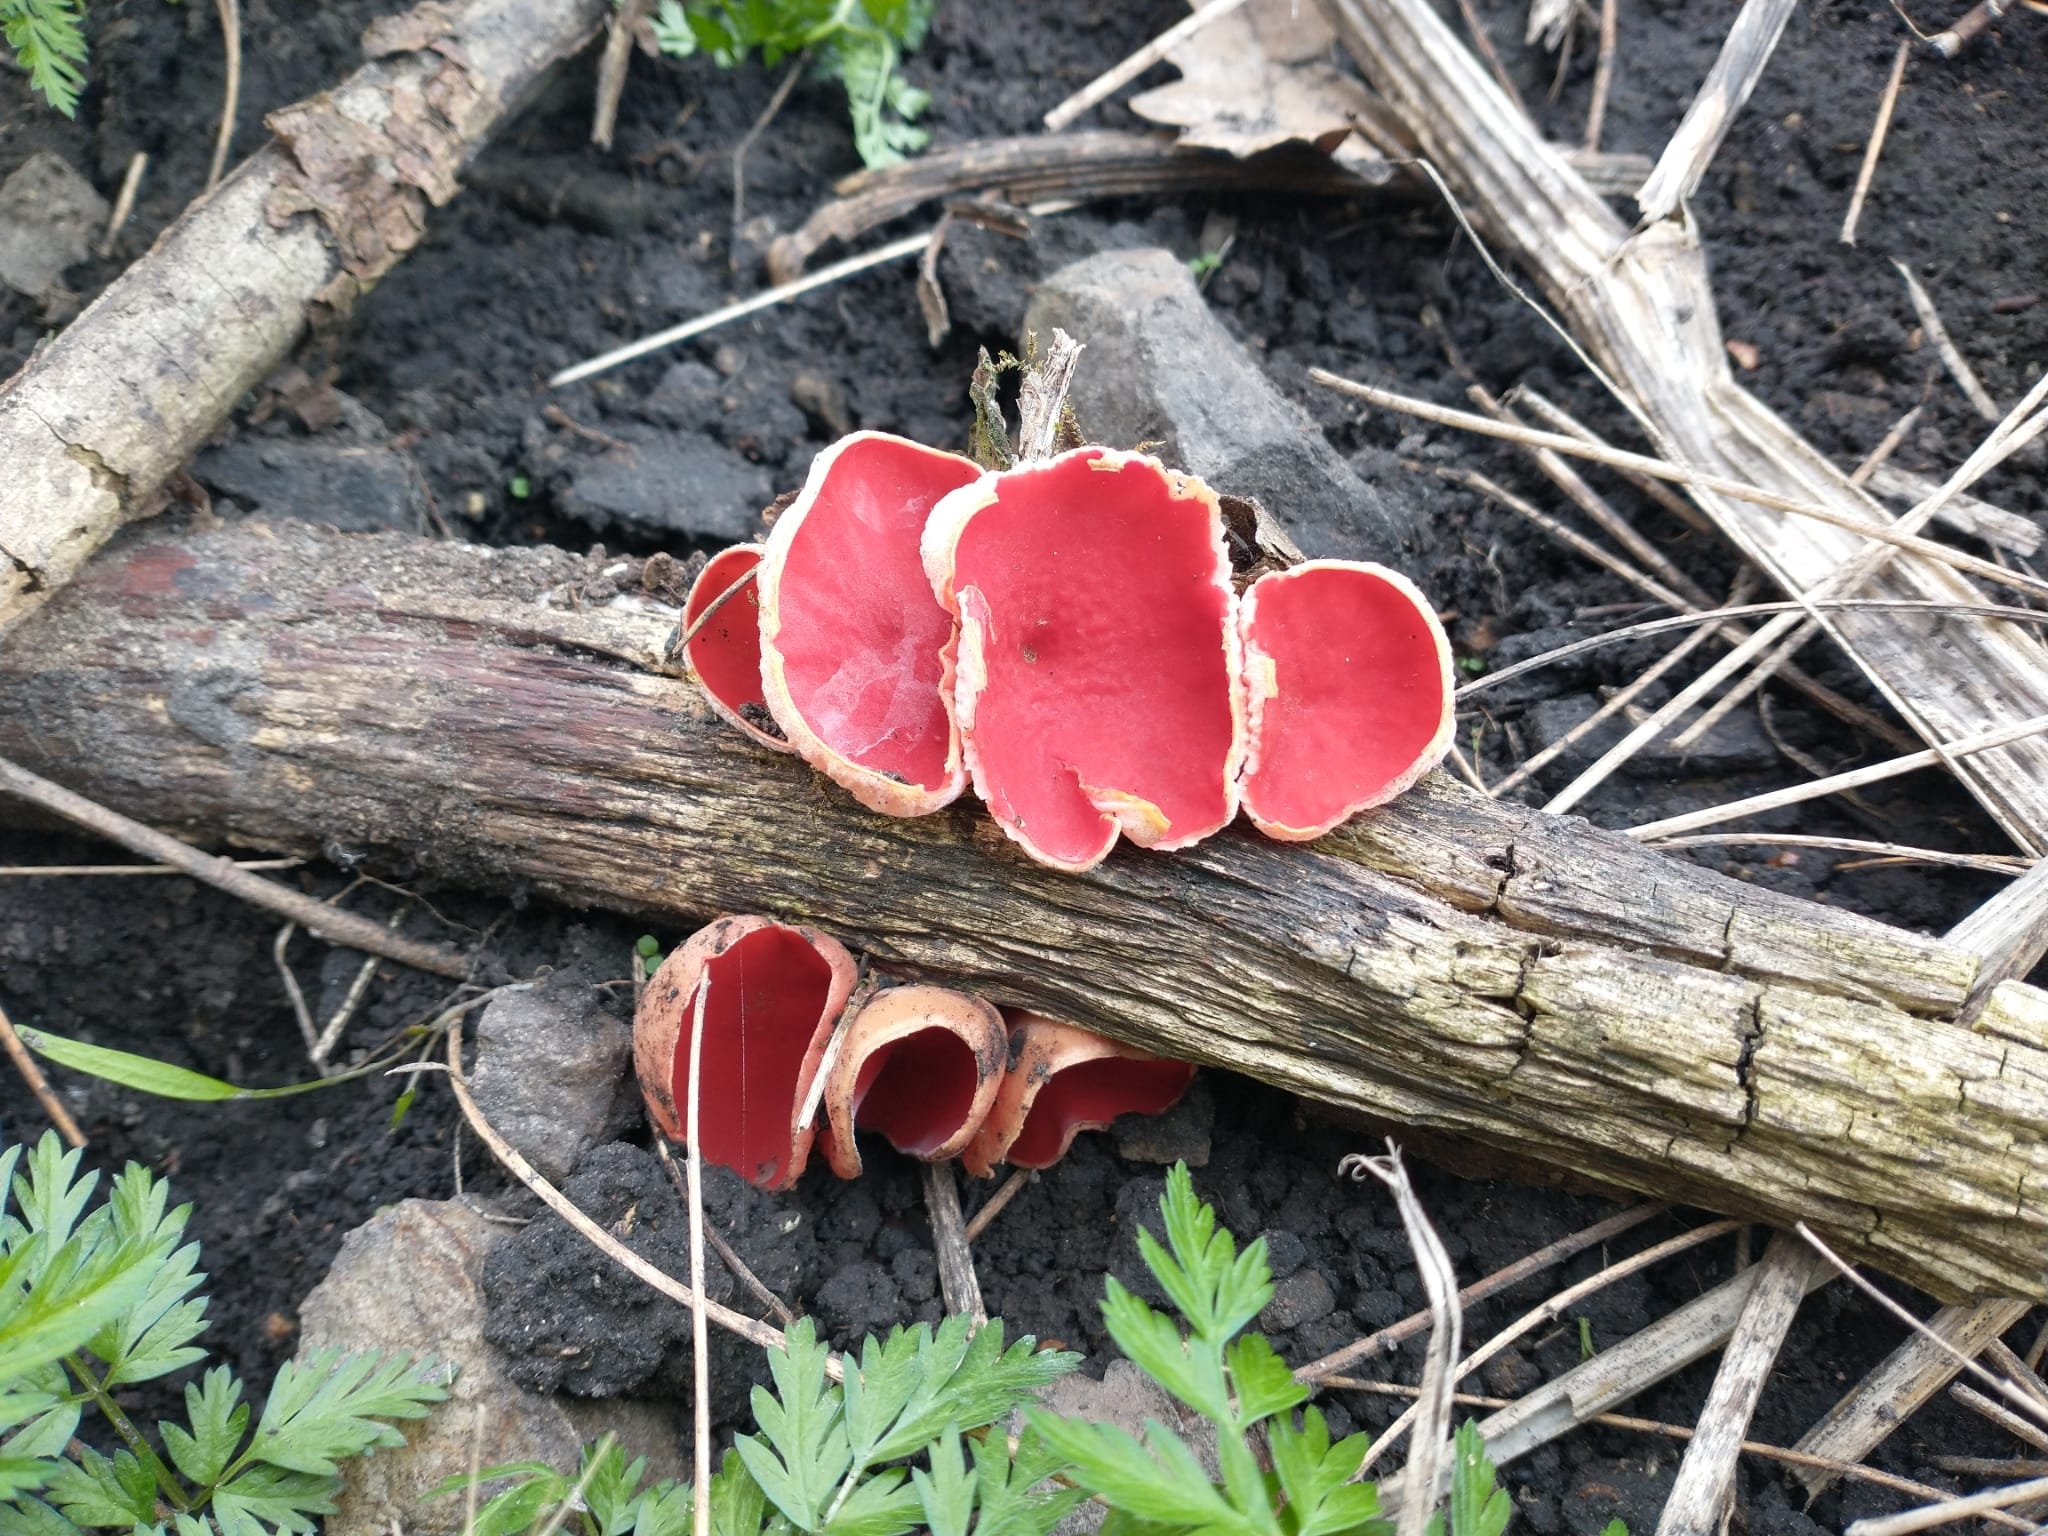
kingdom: Fungi
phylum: Ascomycota
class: Pezizomycetes
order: Pezizales
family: Sarcoscyphaceae
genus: Sarcoscypha
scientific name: Sarcoscypha
